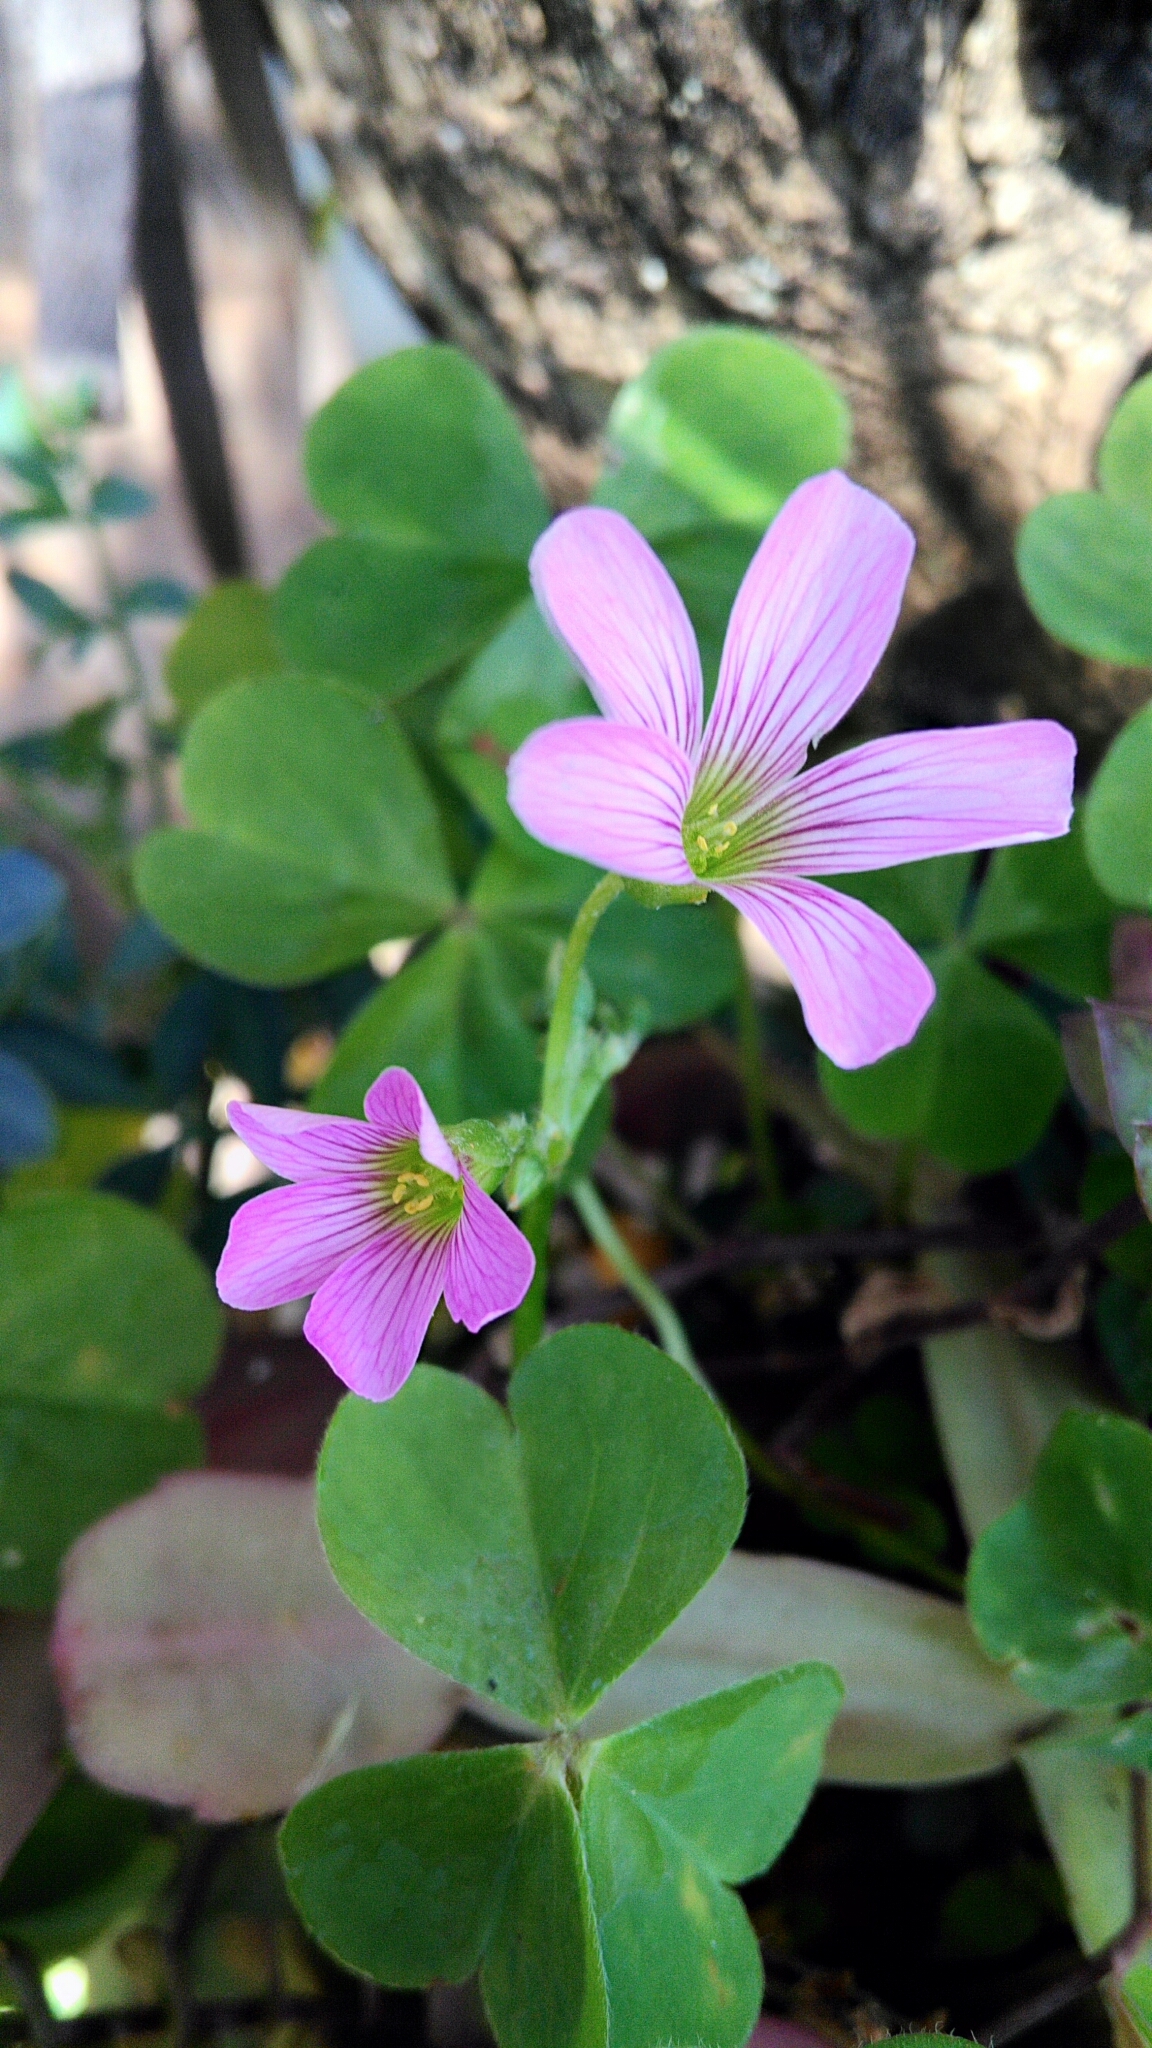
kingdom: Plantae
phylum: Tracheophyta
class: Magnoliopsida
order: Oxalidales
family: Oxalidaceae
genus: Oxalis
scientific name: Oxalis debilis
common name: Large-flowered pink-sorrel
